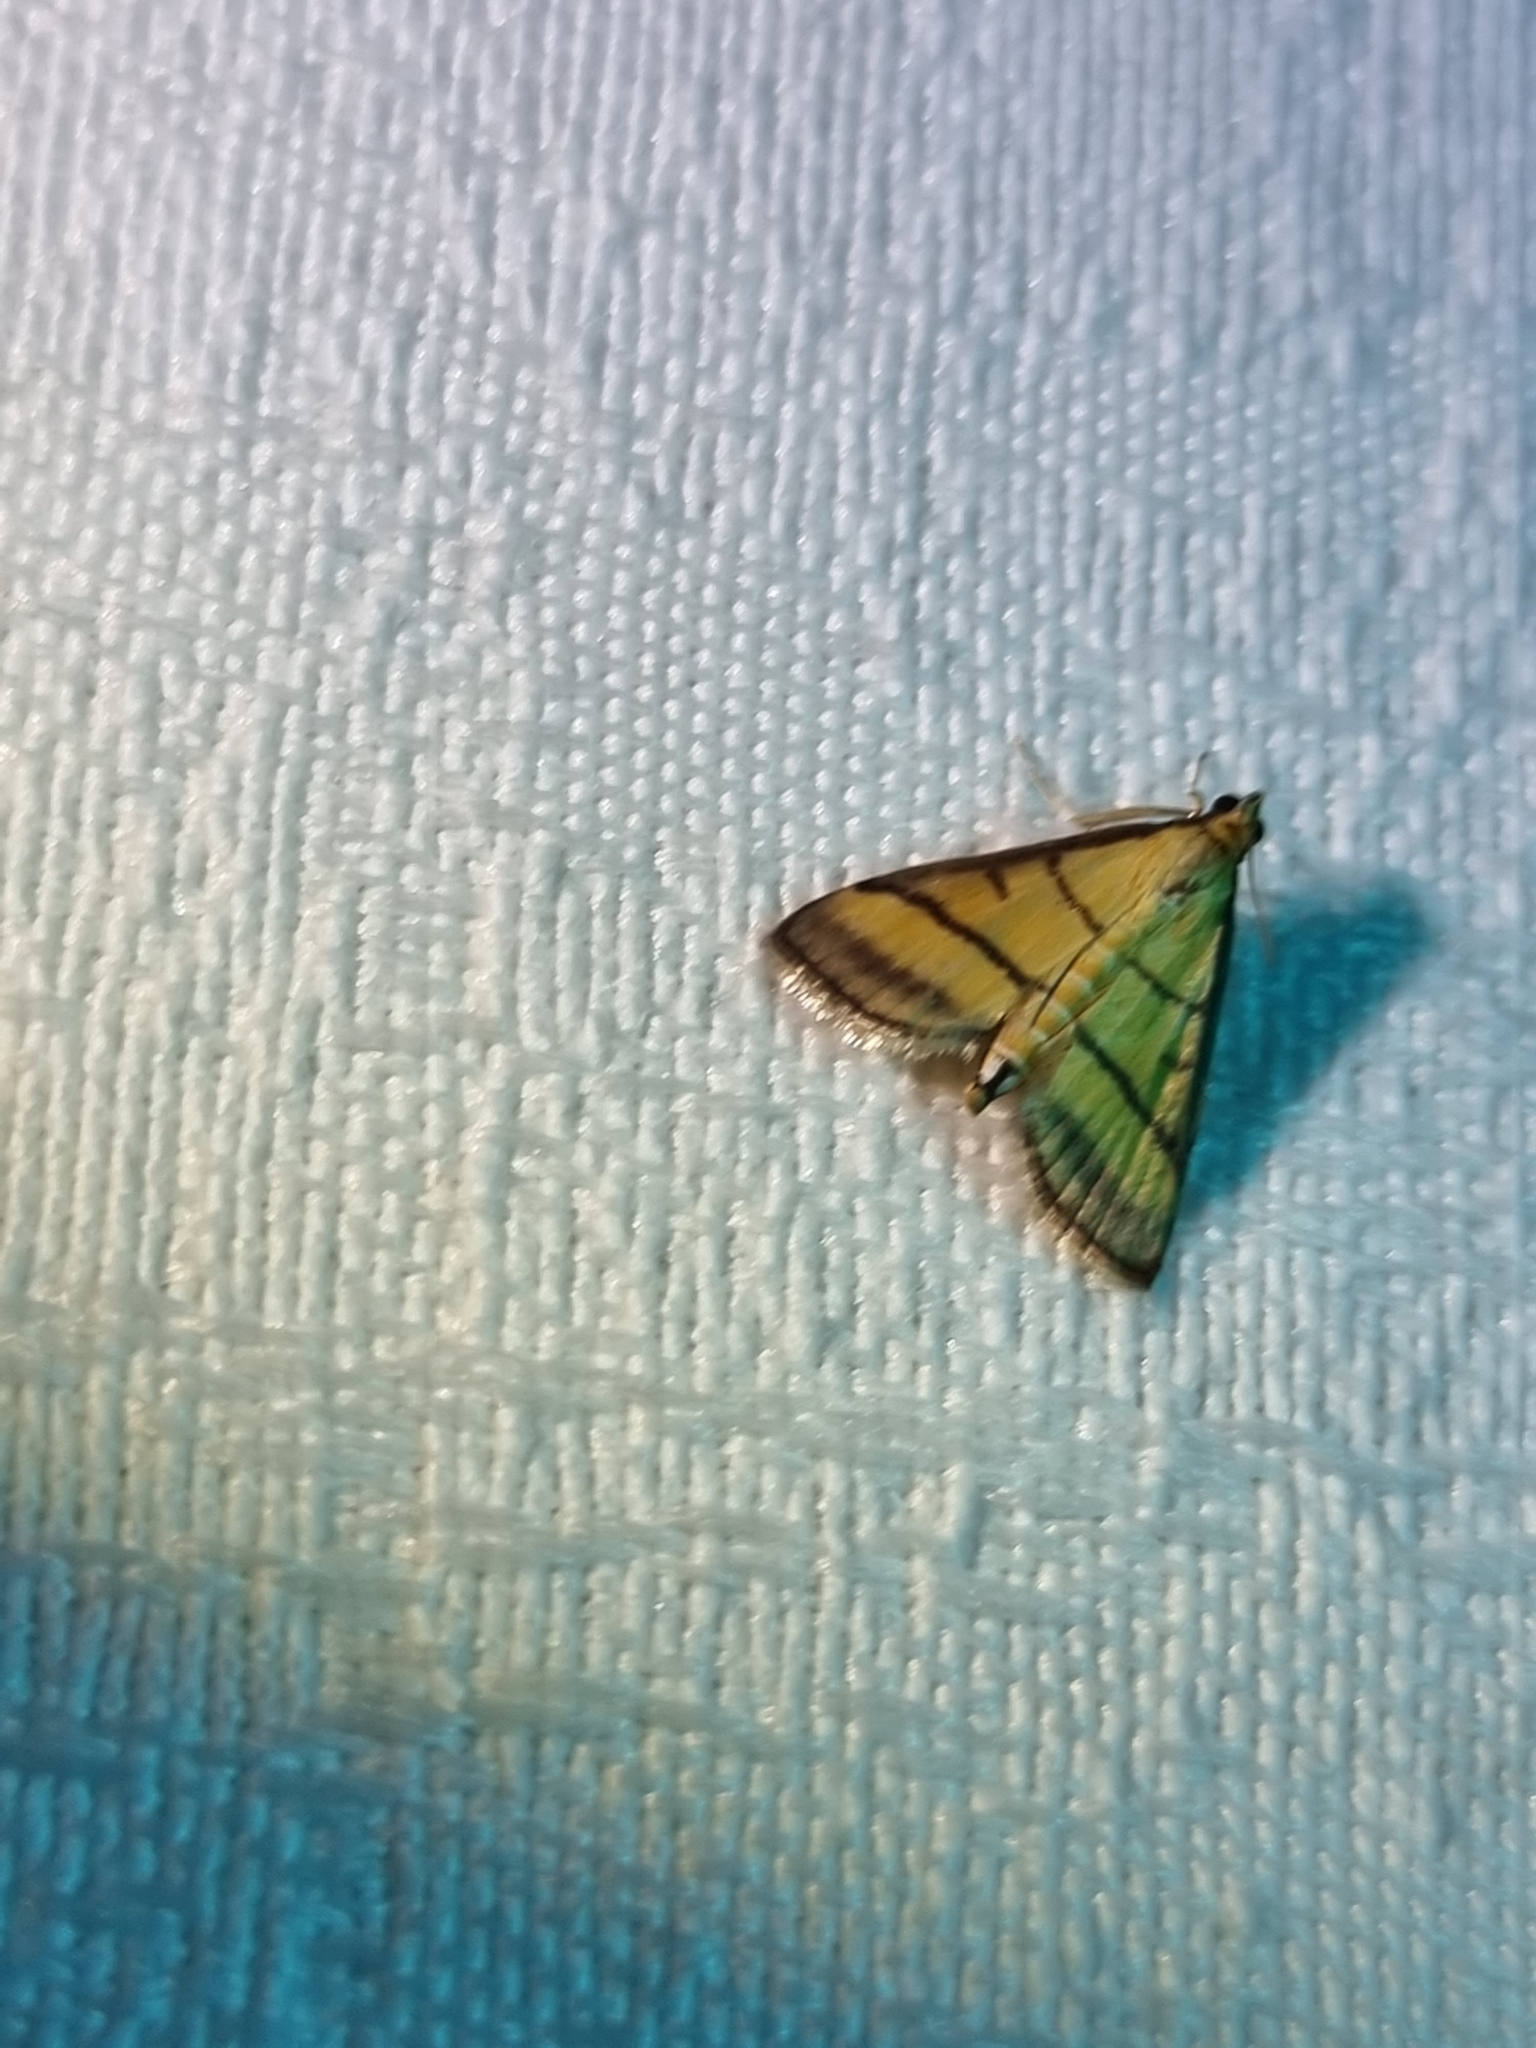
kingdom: Animalia
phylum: Arthropoda
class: Insecta
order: Lepidoptera
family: Crambidae
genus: Cnaphalocrocis
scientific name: Cnaphalocrocis medinalis
